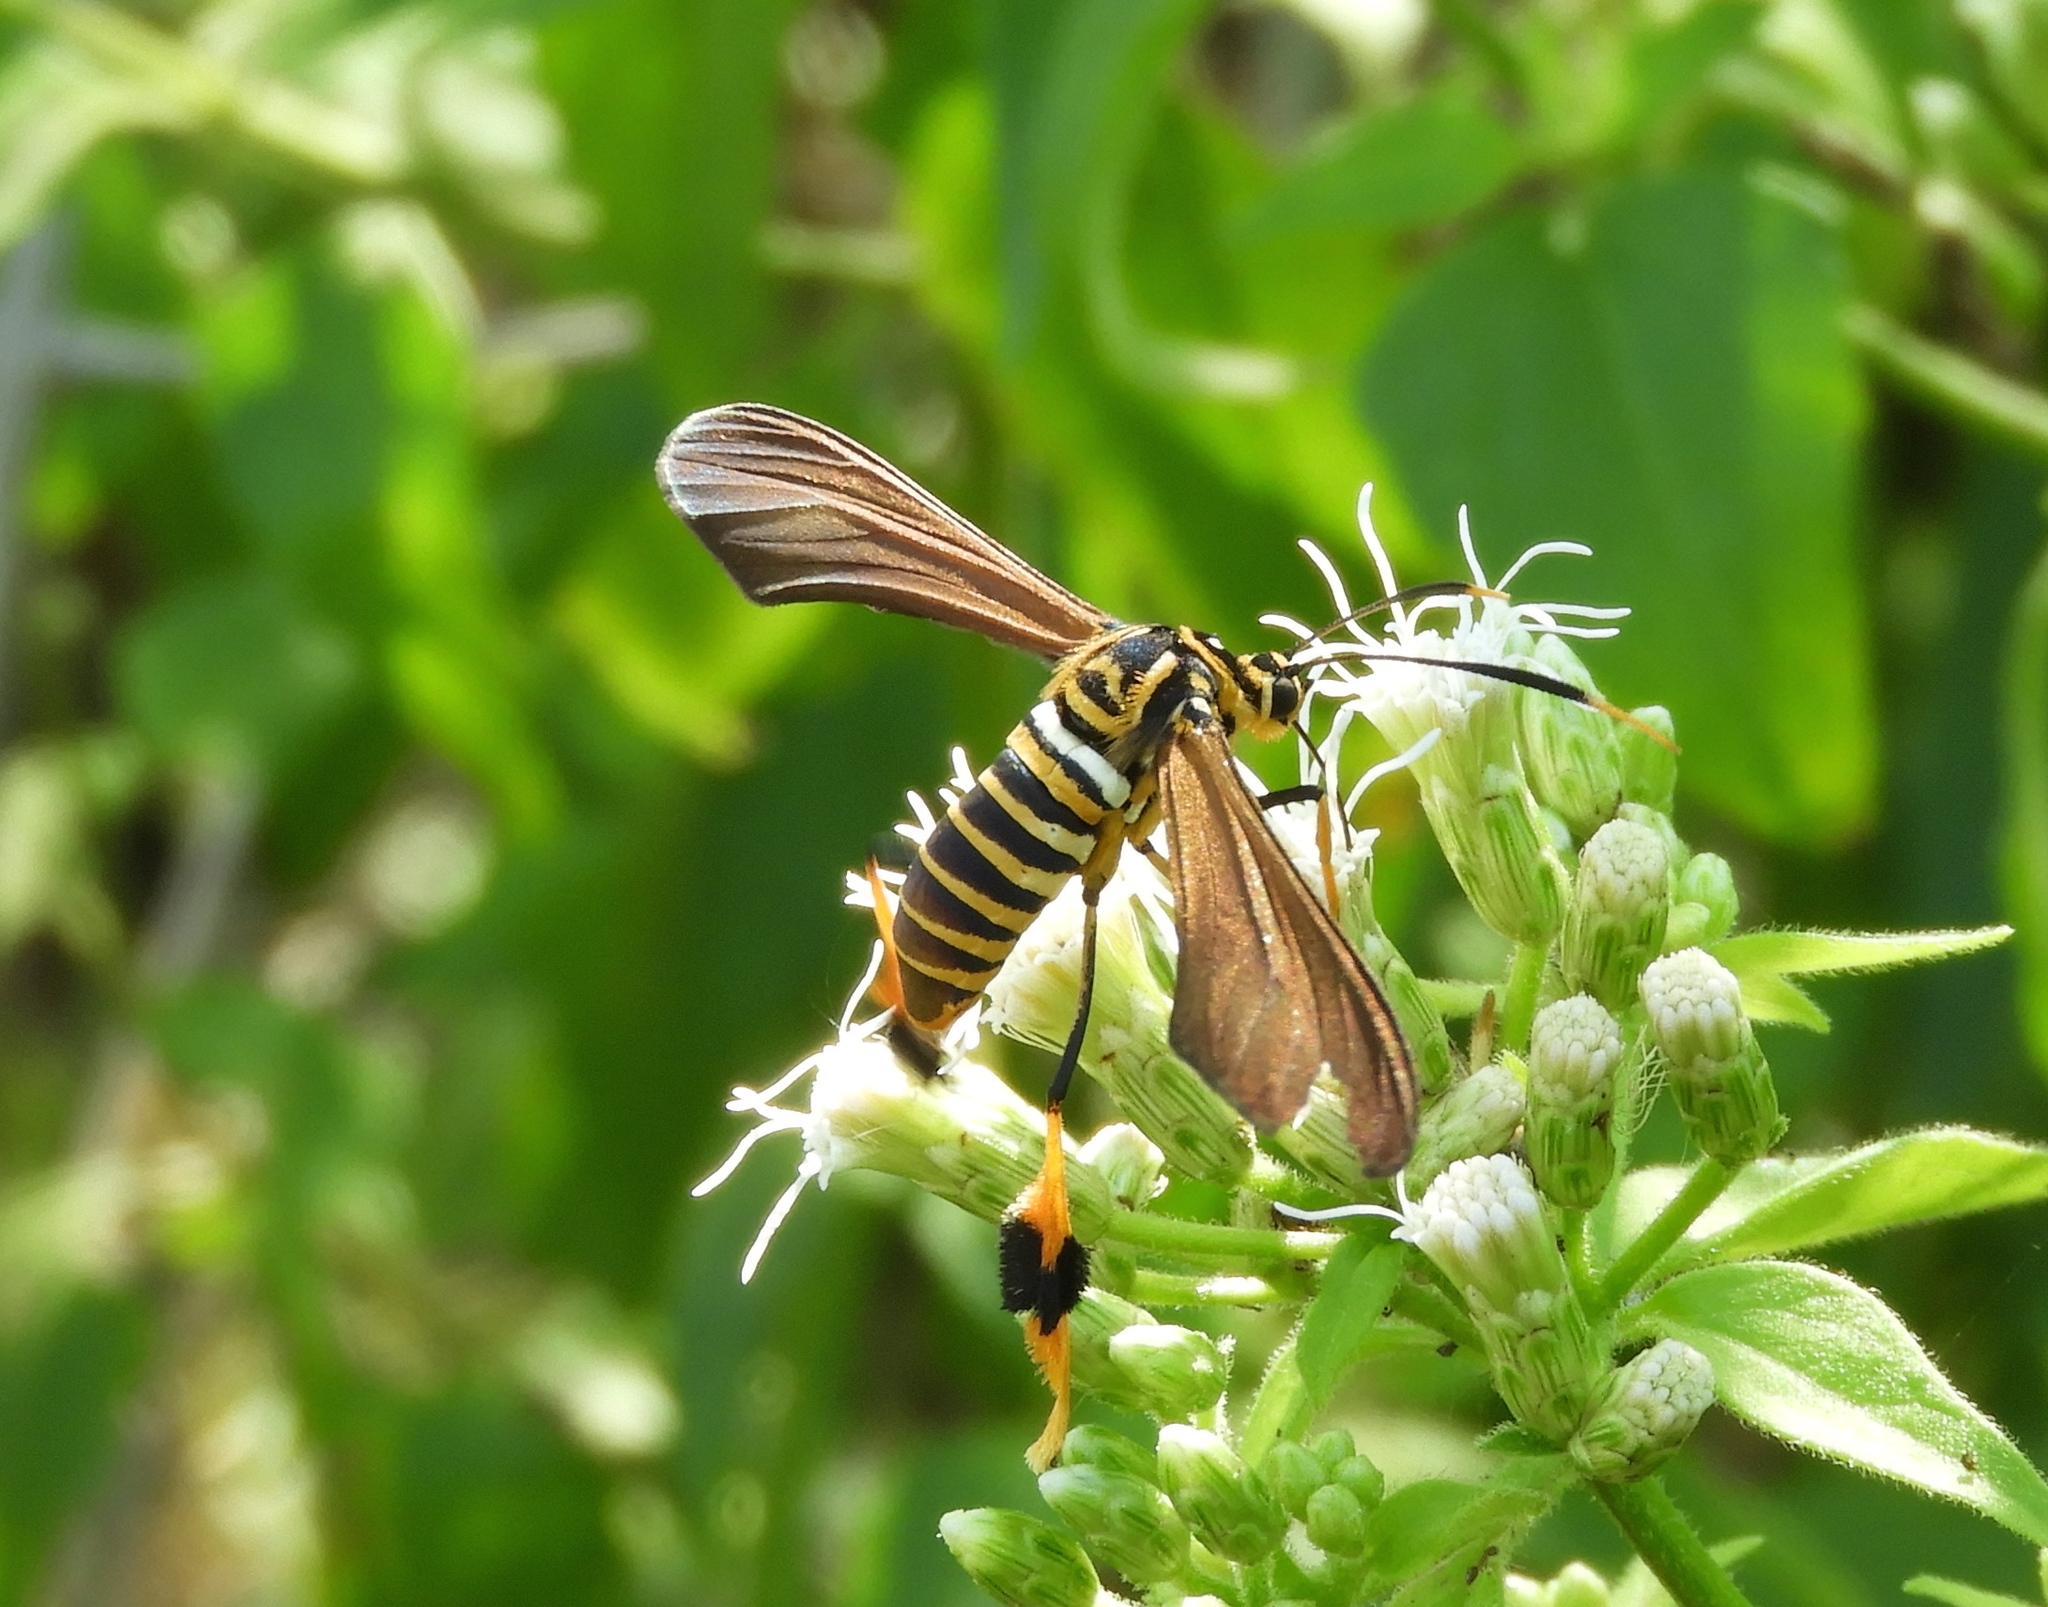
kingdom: Animalia
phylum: Arthropoda
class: Insecta
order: Lepidoptera
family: Erebidae
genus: Horama
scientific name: Horama panthalon
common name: Texas wasp moth
